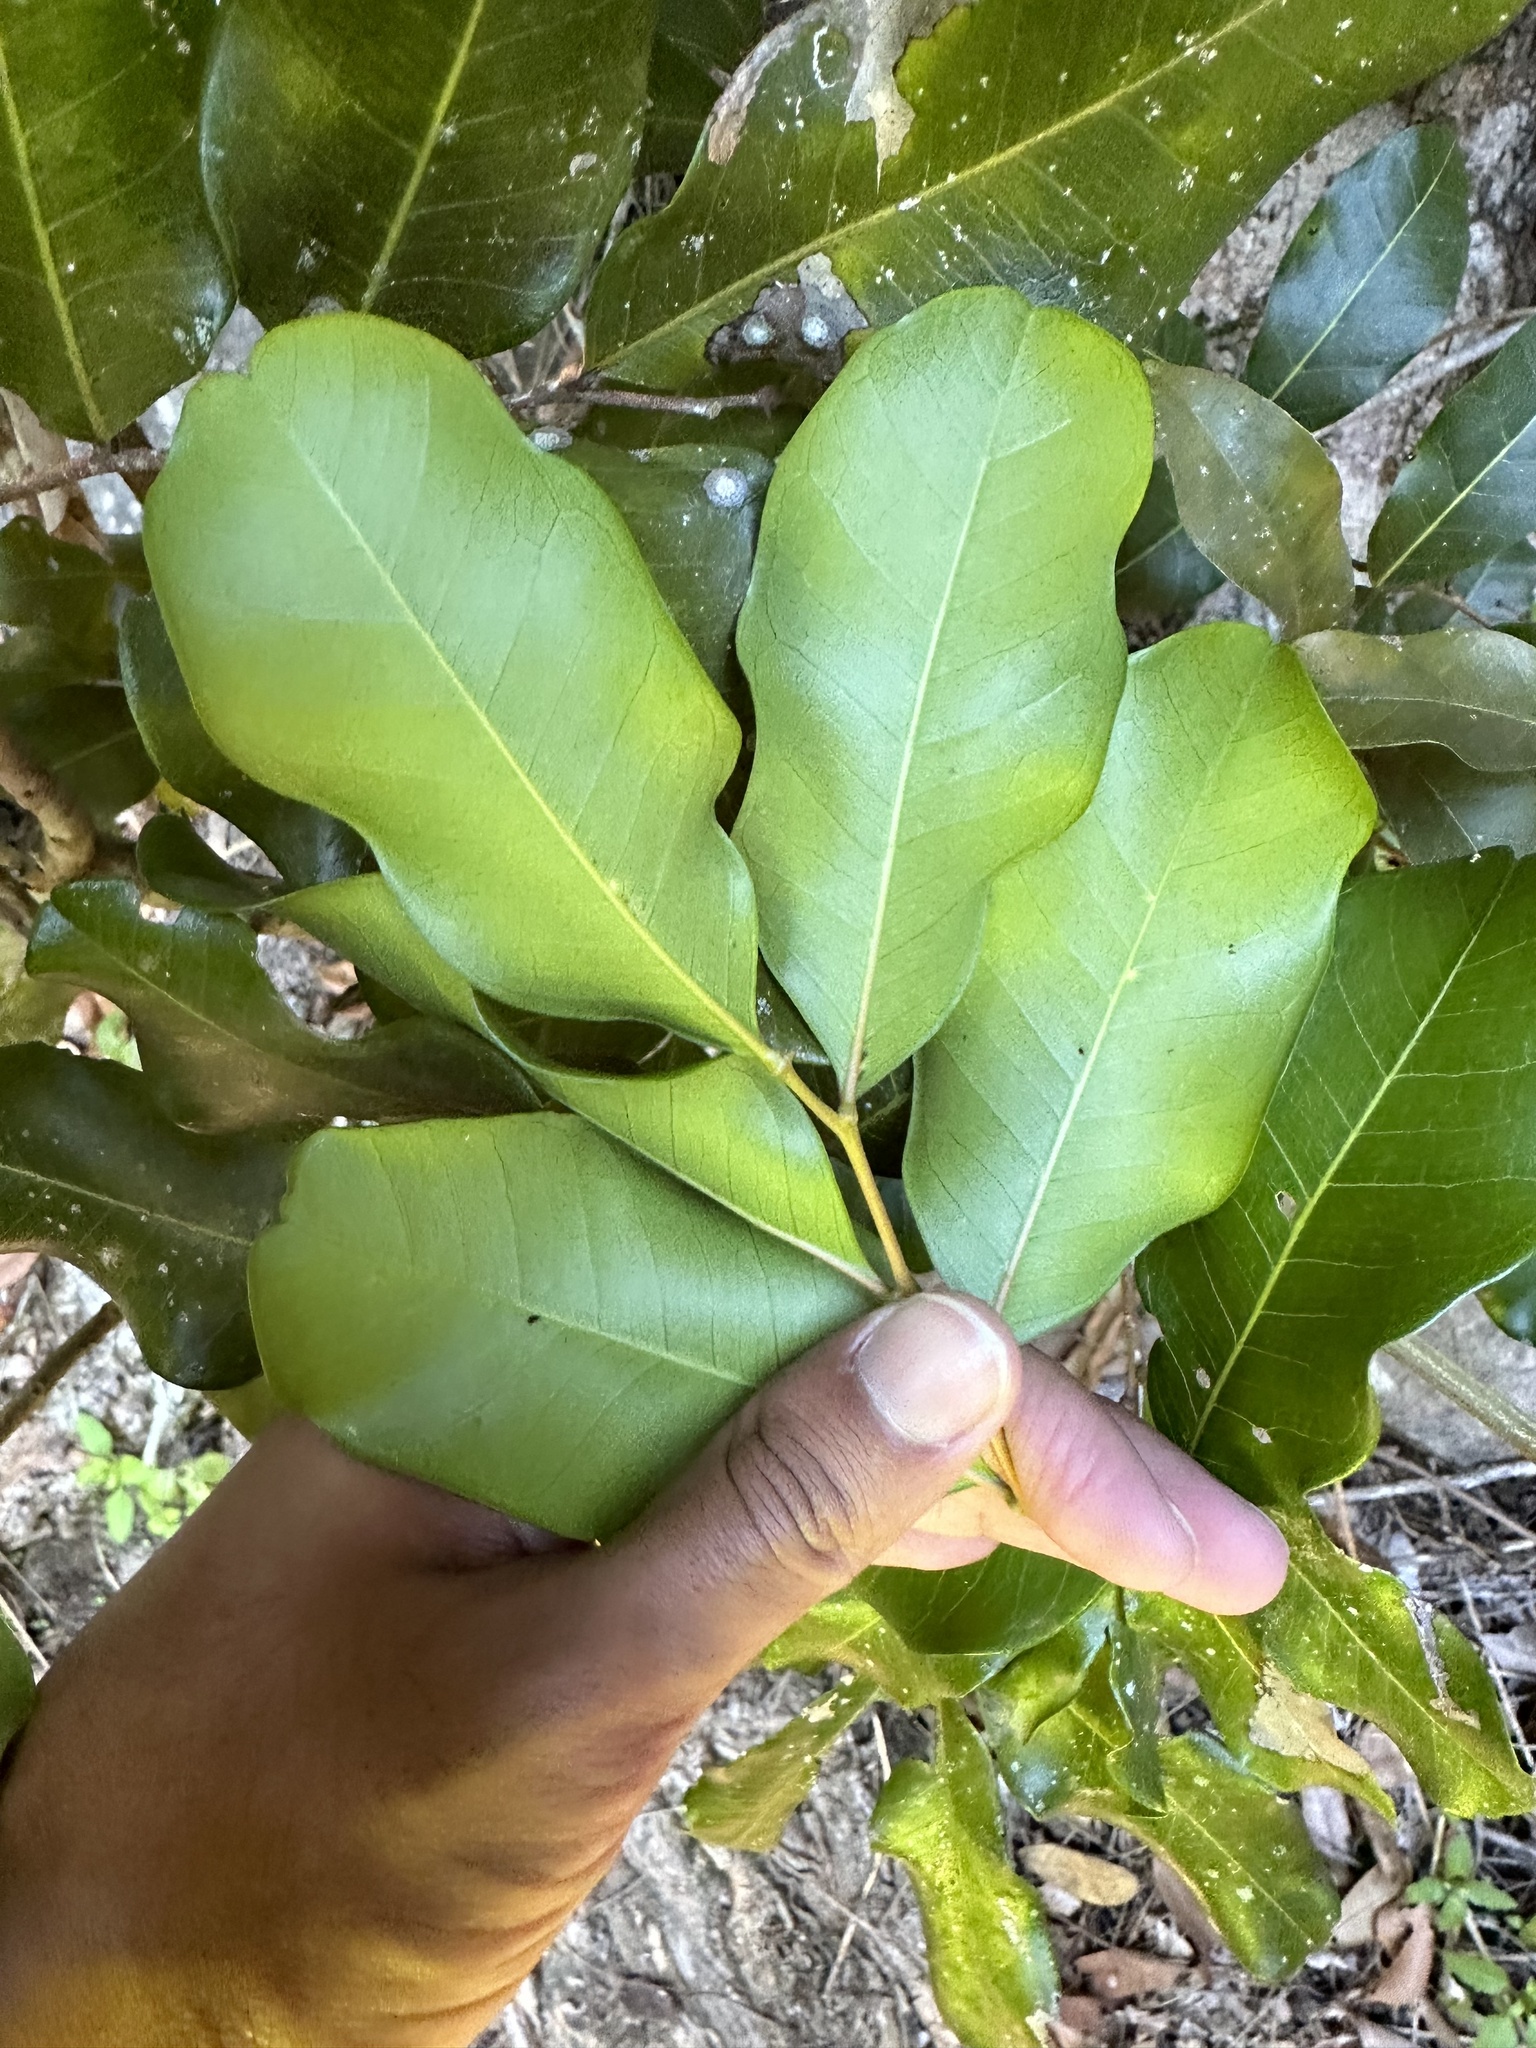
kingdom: Plantae
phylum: Tracheophyta
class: Magnoliopsida
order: Sapindales
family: Sapindaceae
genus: Cupaniopsis
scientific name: Cupaniopsis anacardioides
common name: Carrotwood
